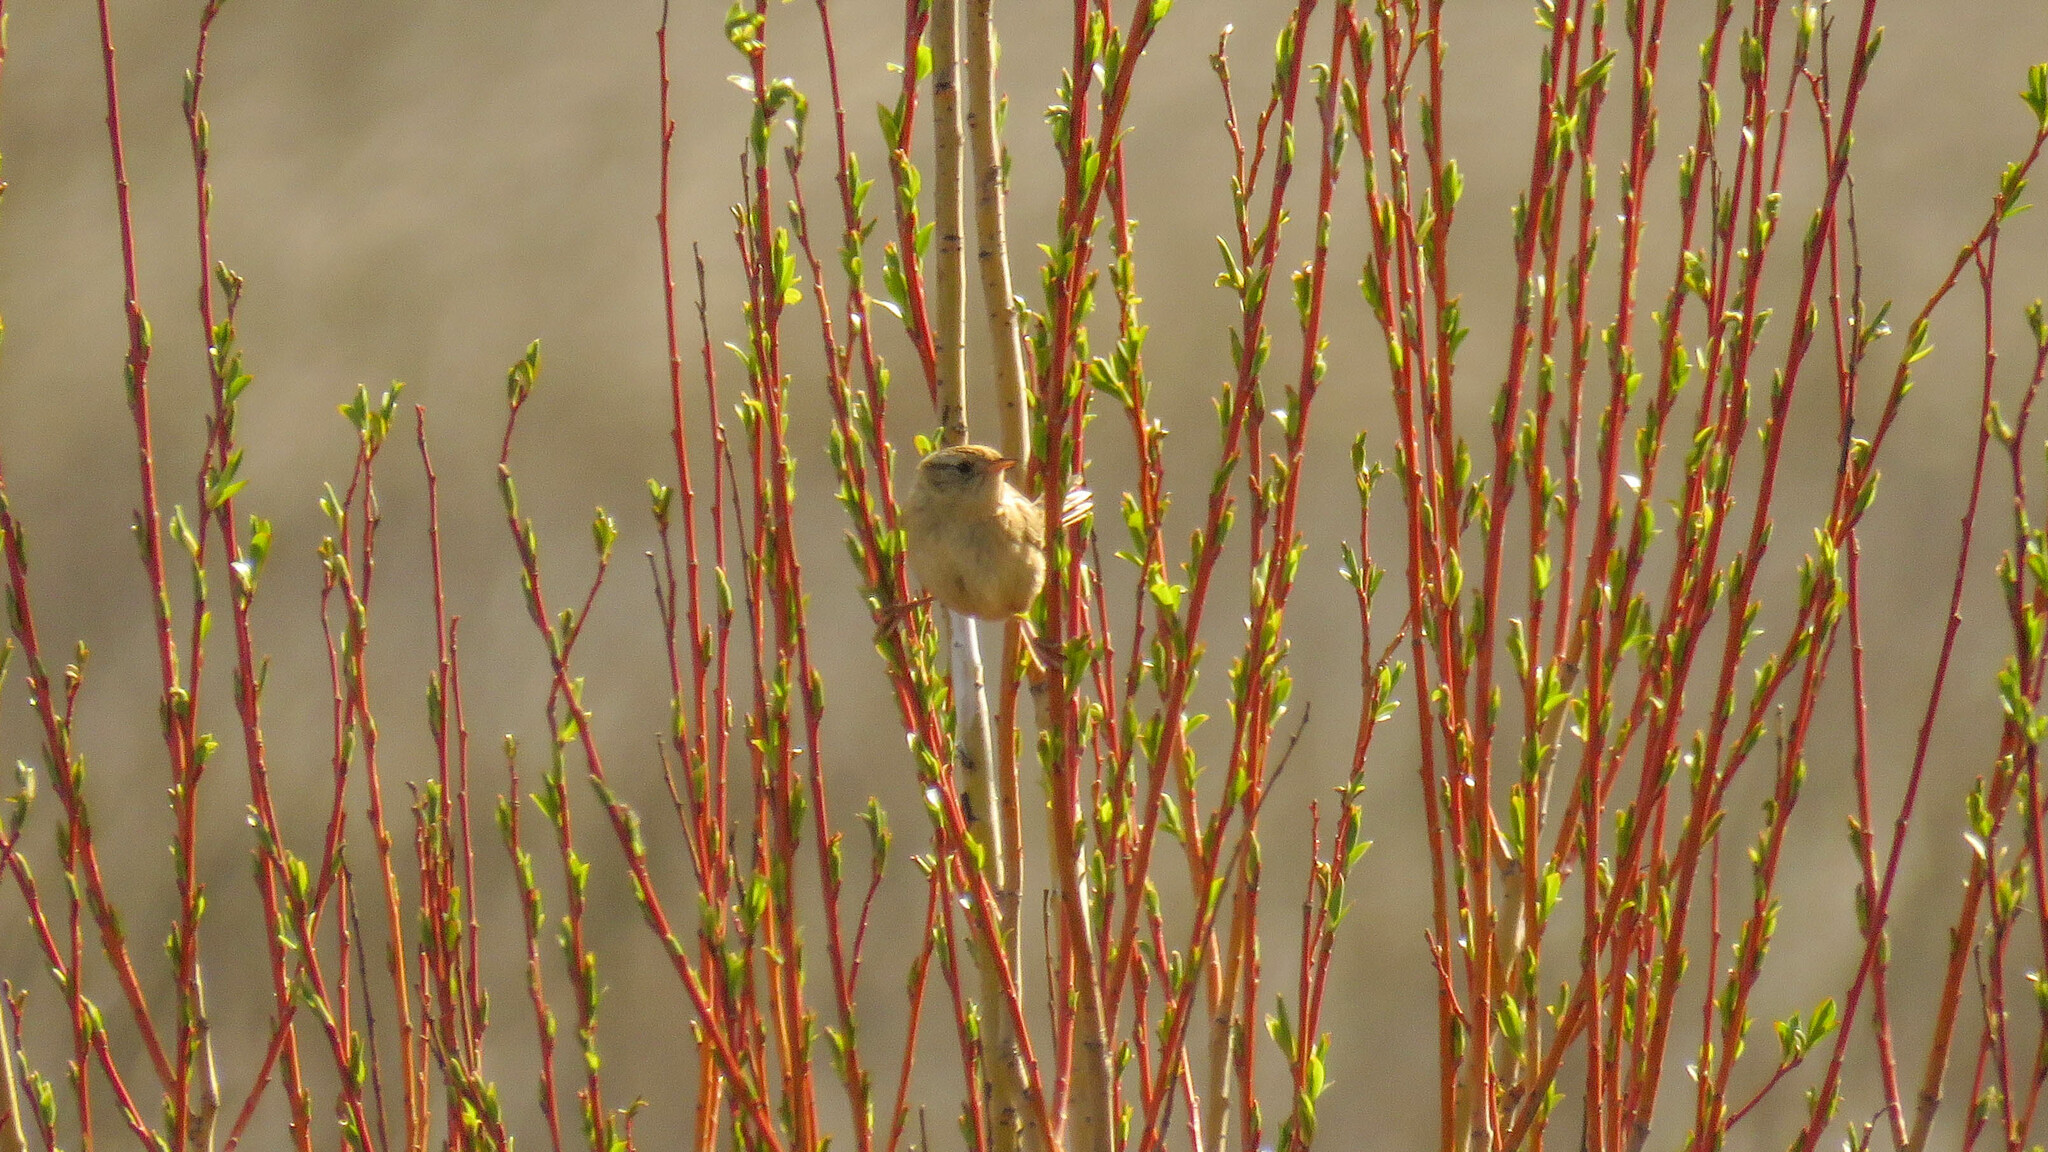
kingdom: Animalia
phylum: Chordata
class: Aves
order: Passeriformes
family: Troglodytidae
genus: Cistothorus
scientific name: Cistothorus platensis
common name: Sedge wren
